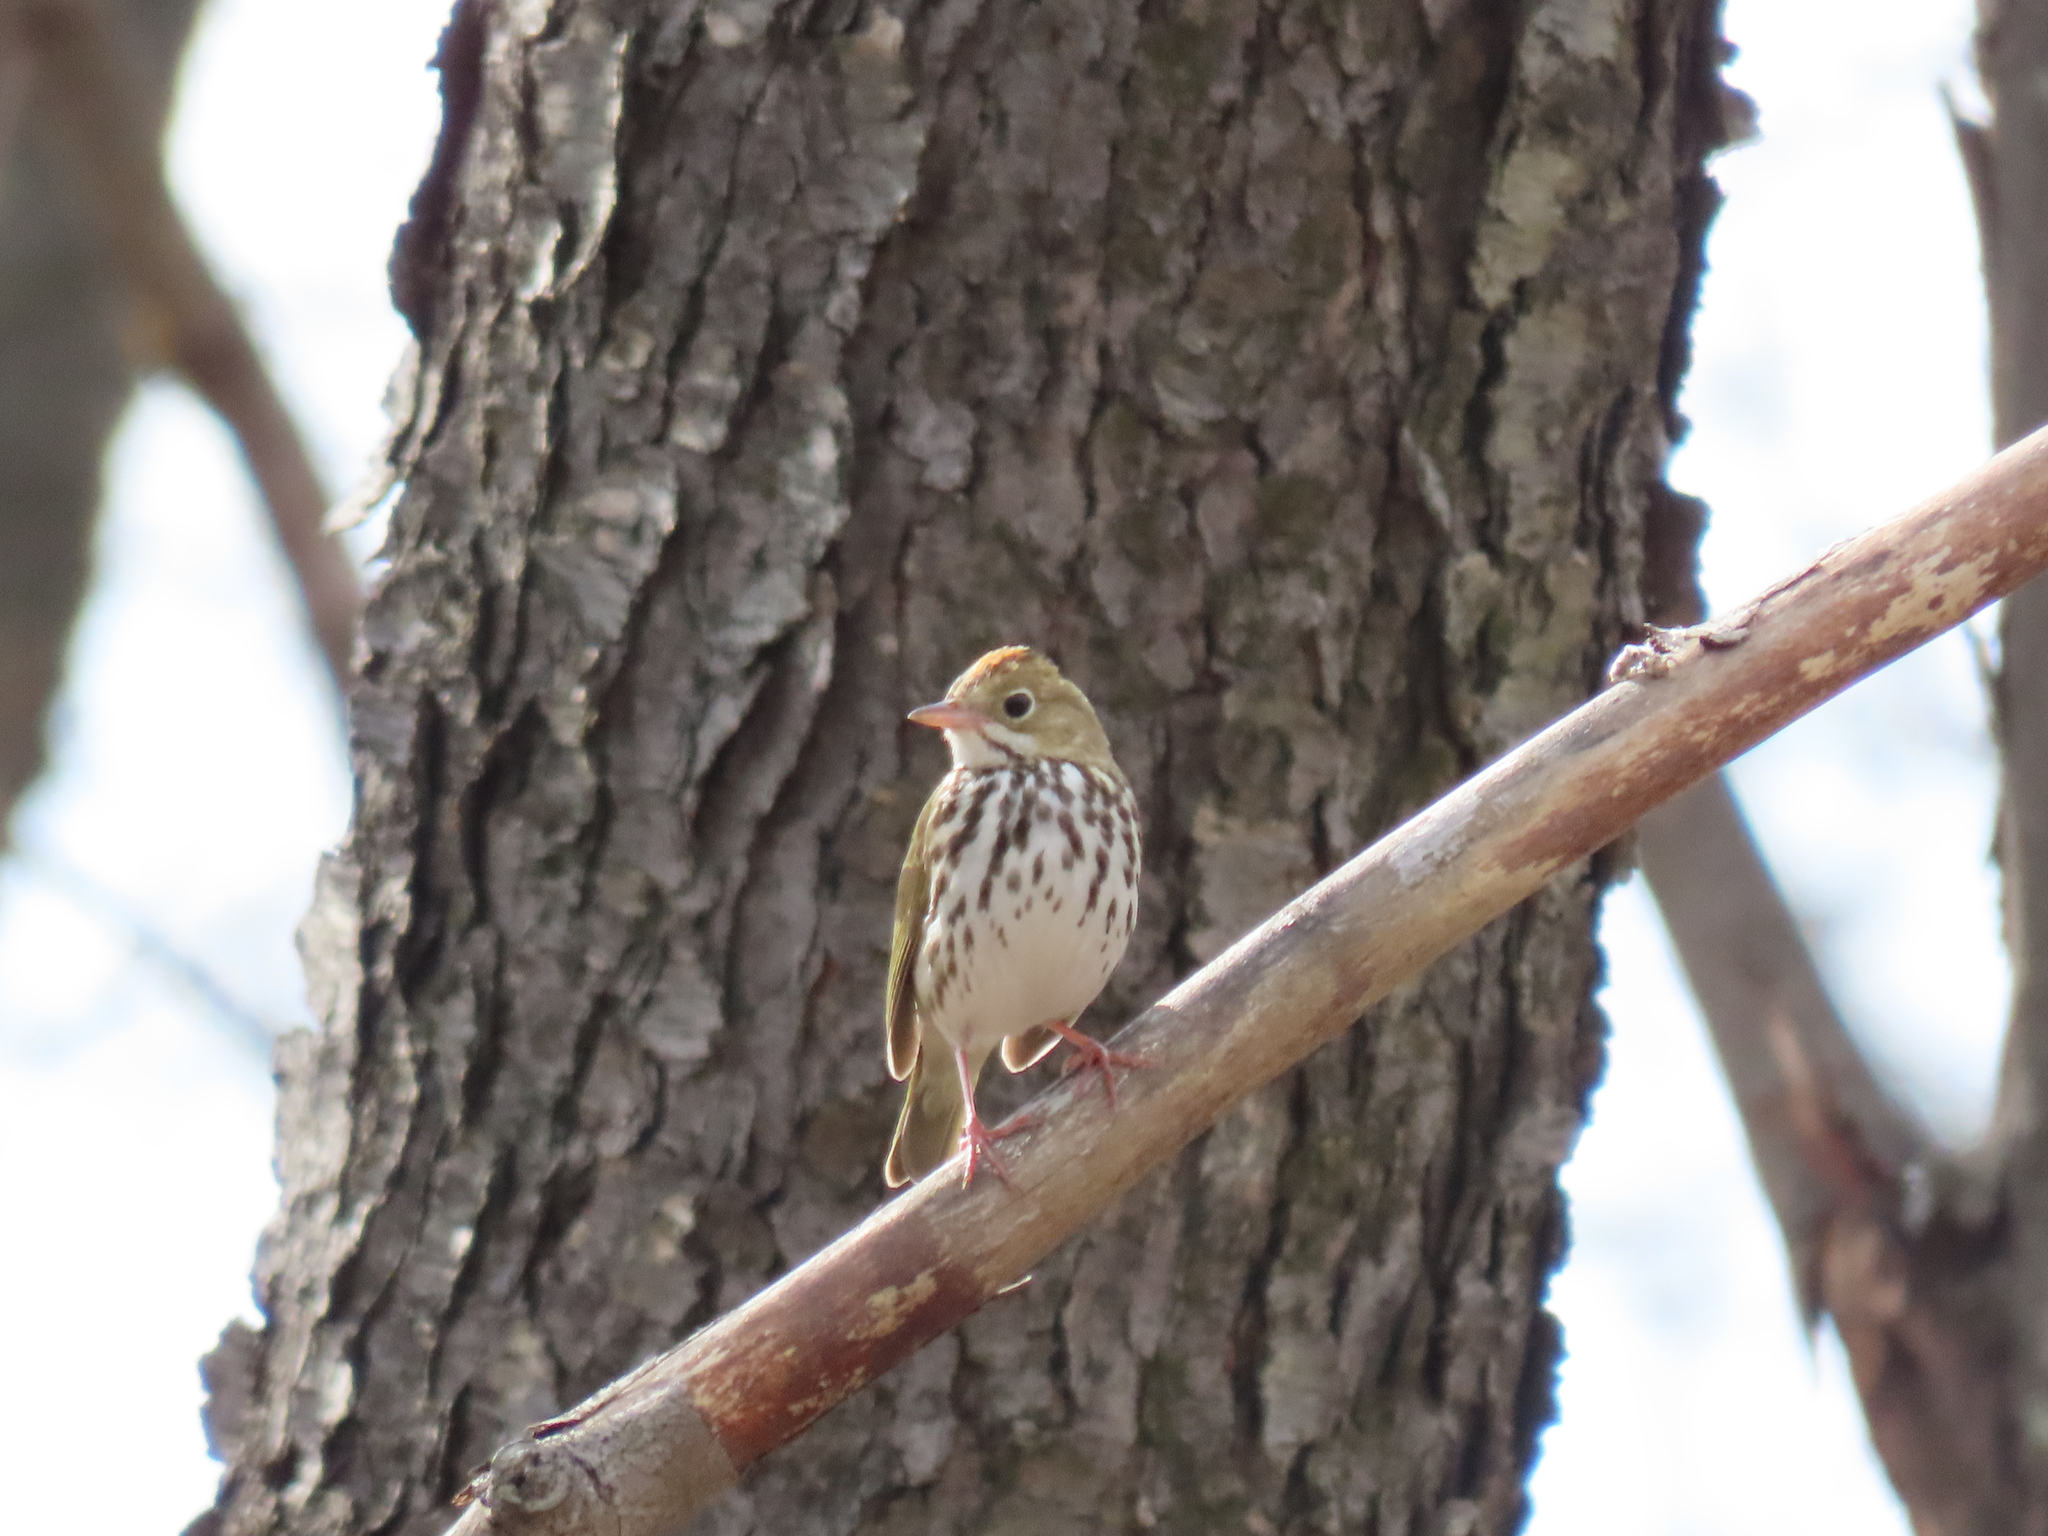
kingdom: Animalia
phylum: Chordata
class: Aves
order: Passeriformes
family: Parulidae
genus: Seiurus
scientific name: Seiurus aurocapilla
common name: Ovenbird
